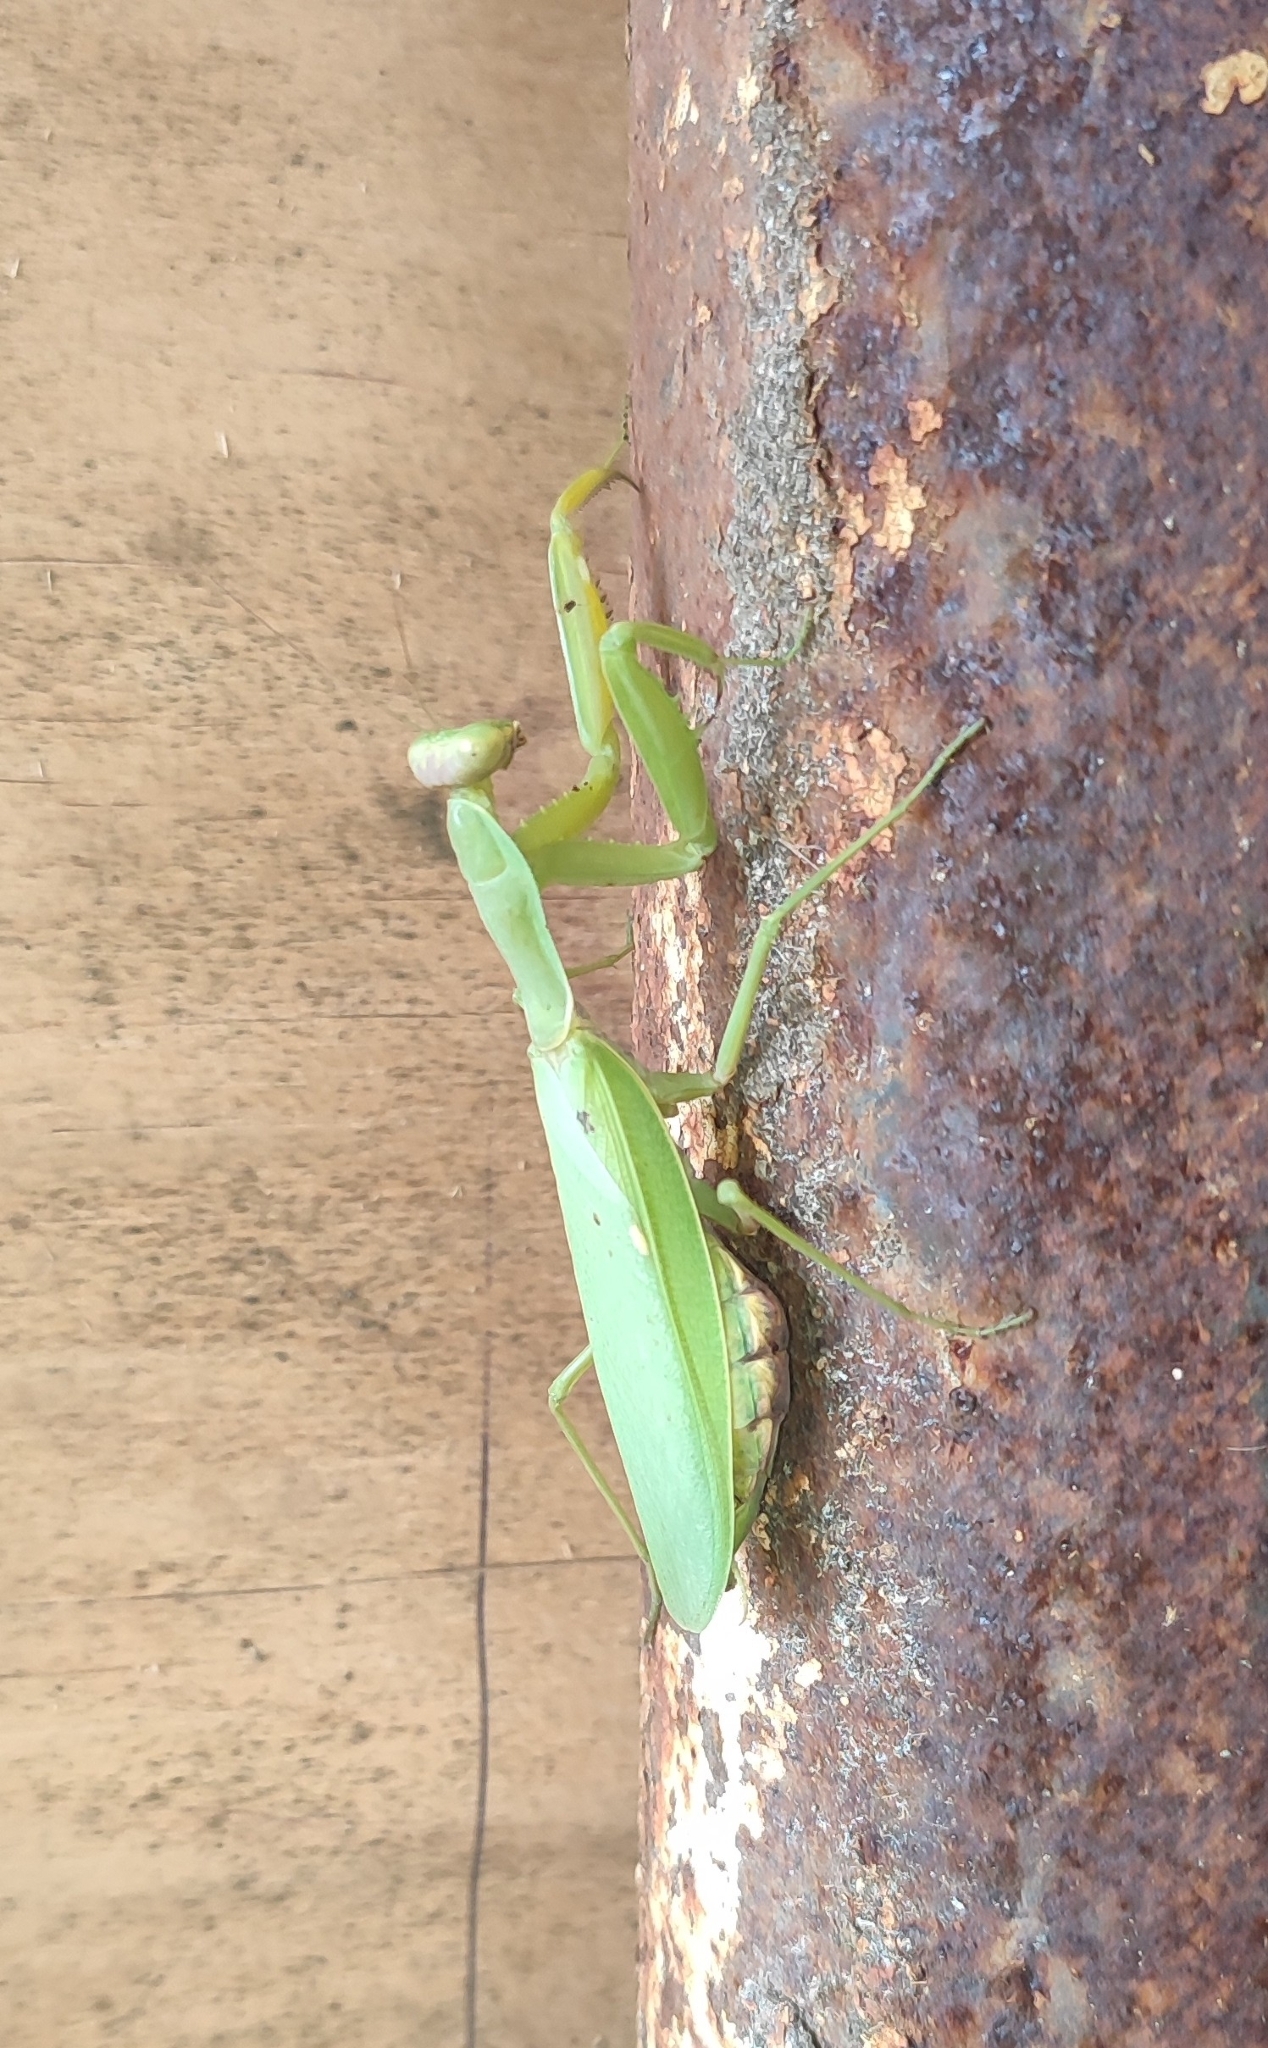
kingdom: Animalia
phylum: Arthropoda
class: Insecta
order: Mantodea
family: Mantidae
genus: Hierodula
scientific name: Hierodula transcaucasica
